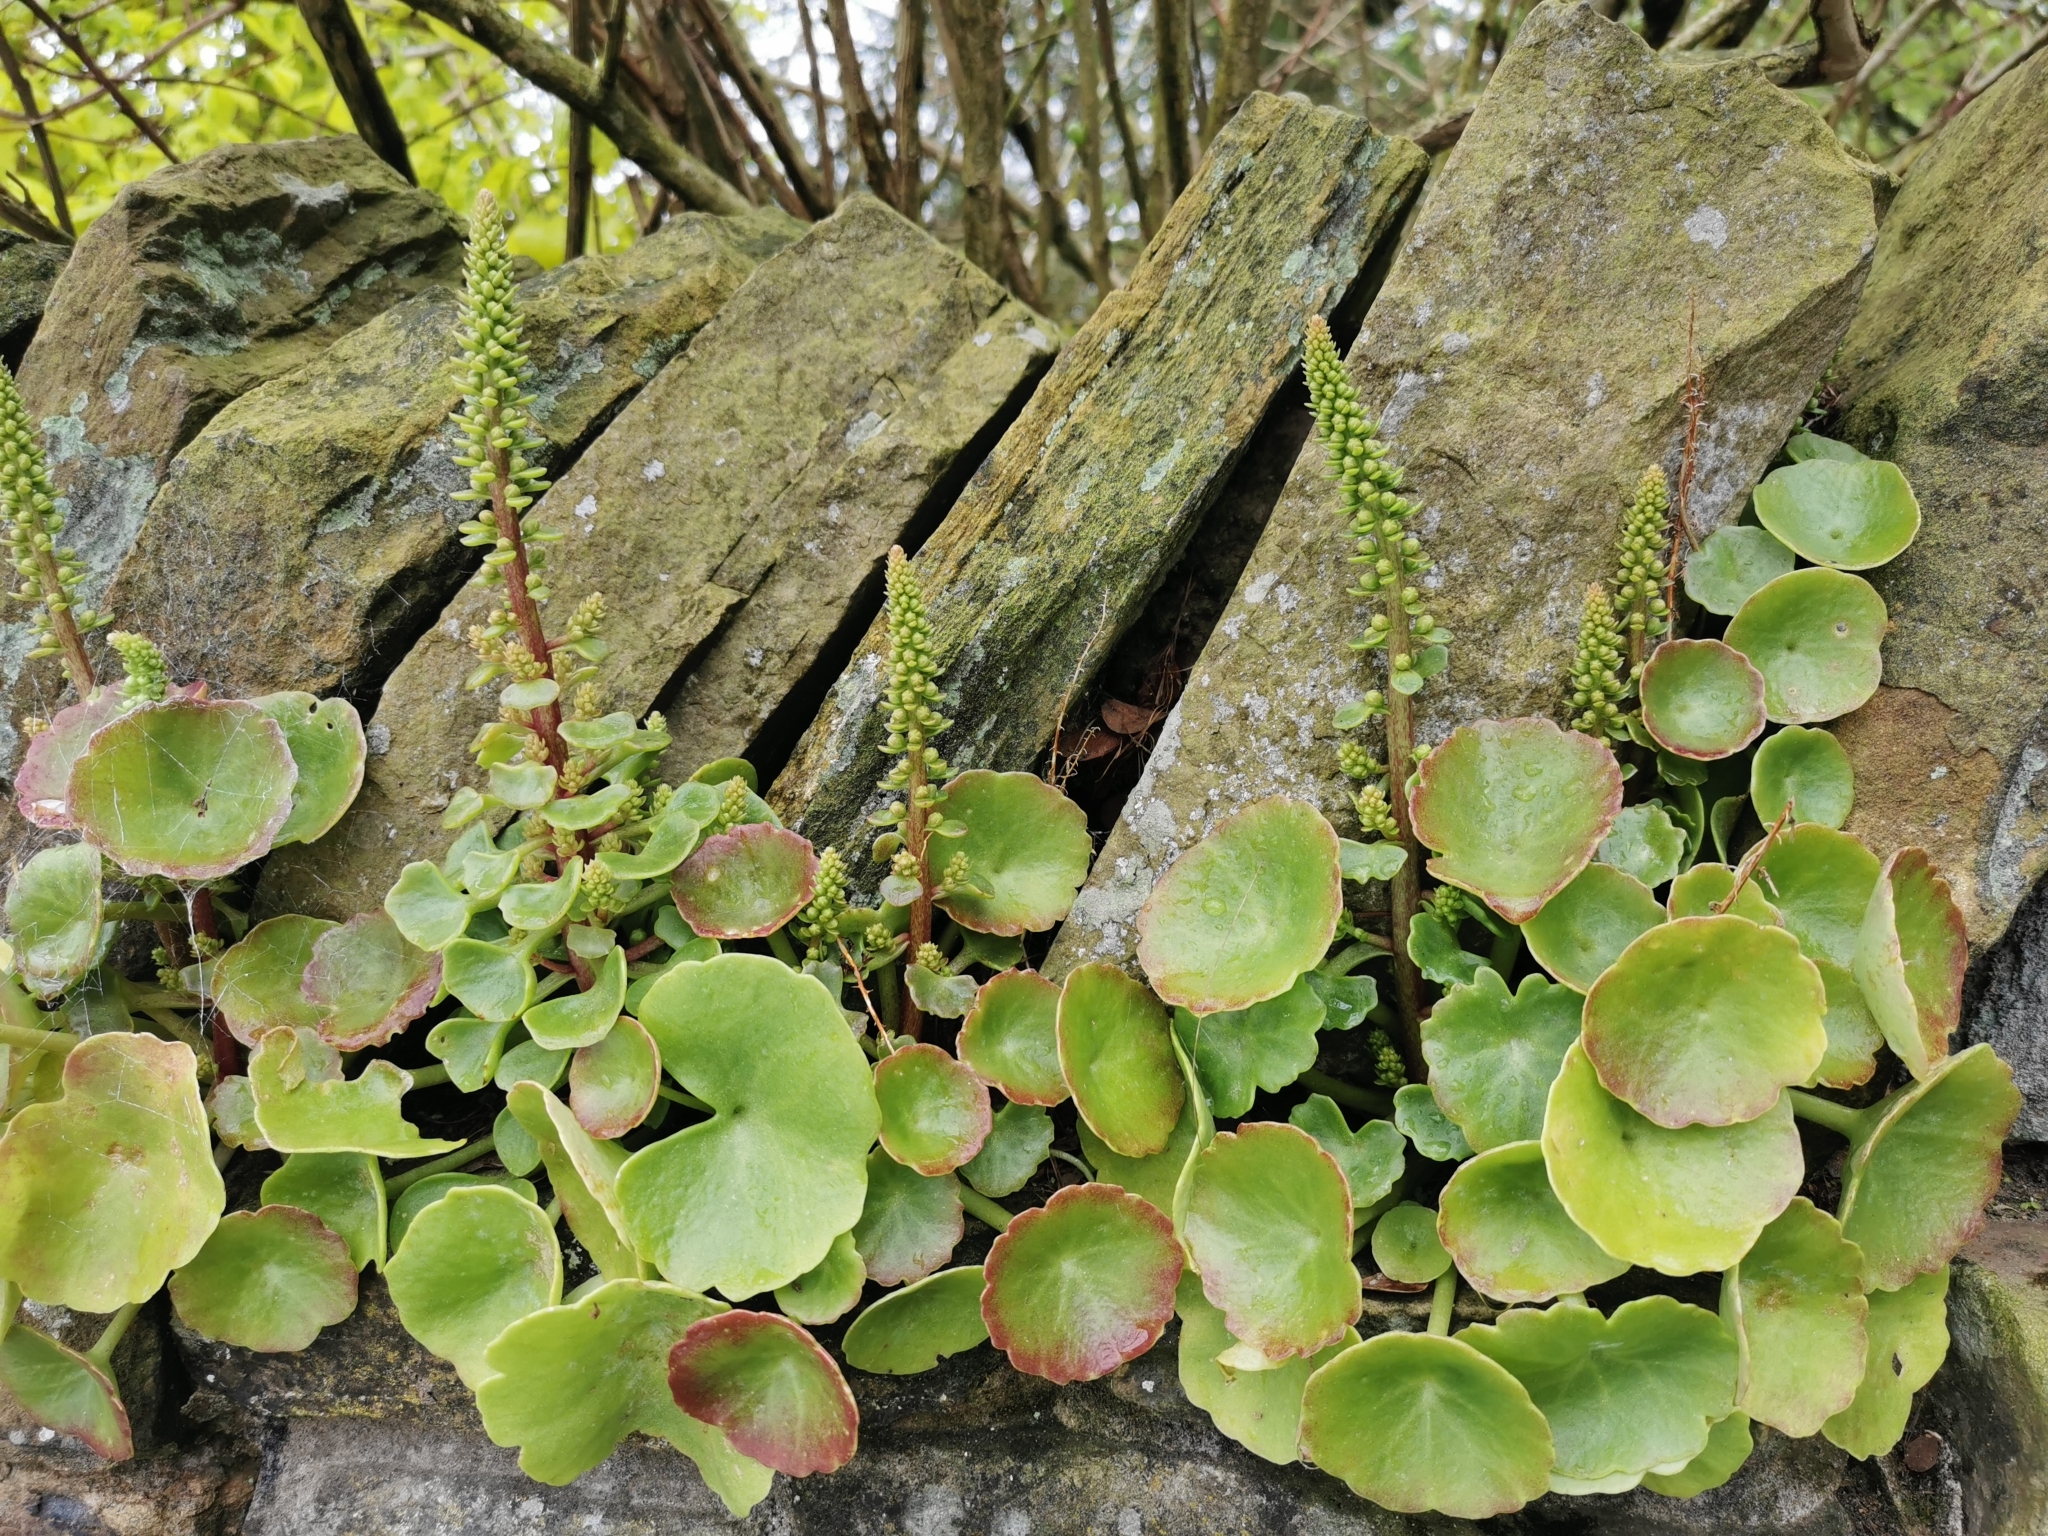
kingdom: Plantae
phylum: Tracheophyta
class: Magnoliopsida
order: Saxifragales
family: Crassulaceae
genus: Umbilicus
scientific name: Umbilicus rupestris
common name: Navelwort
